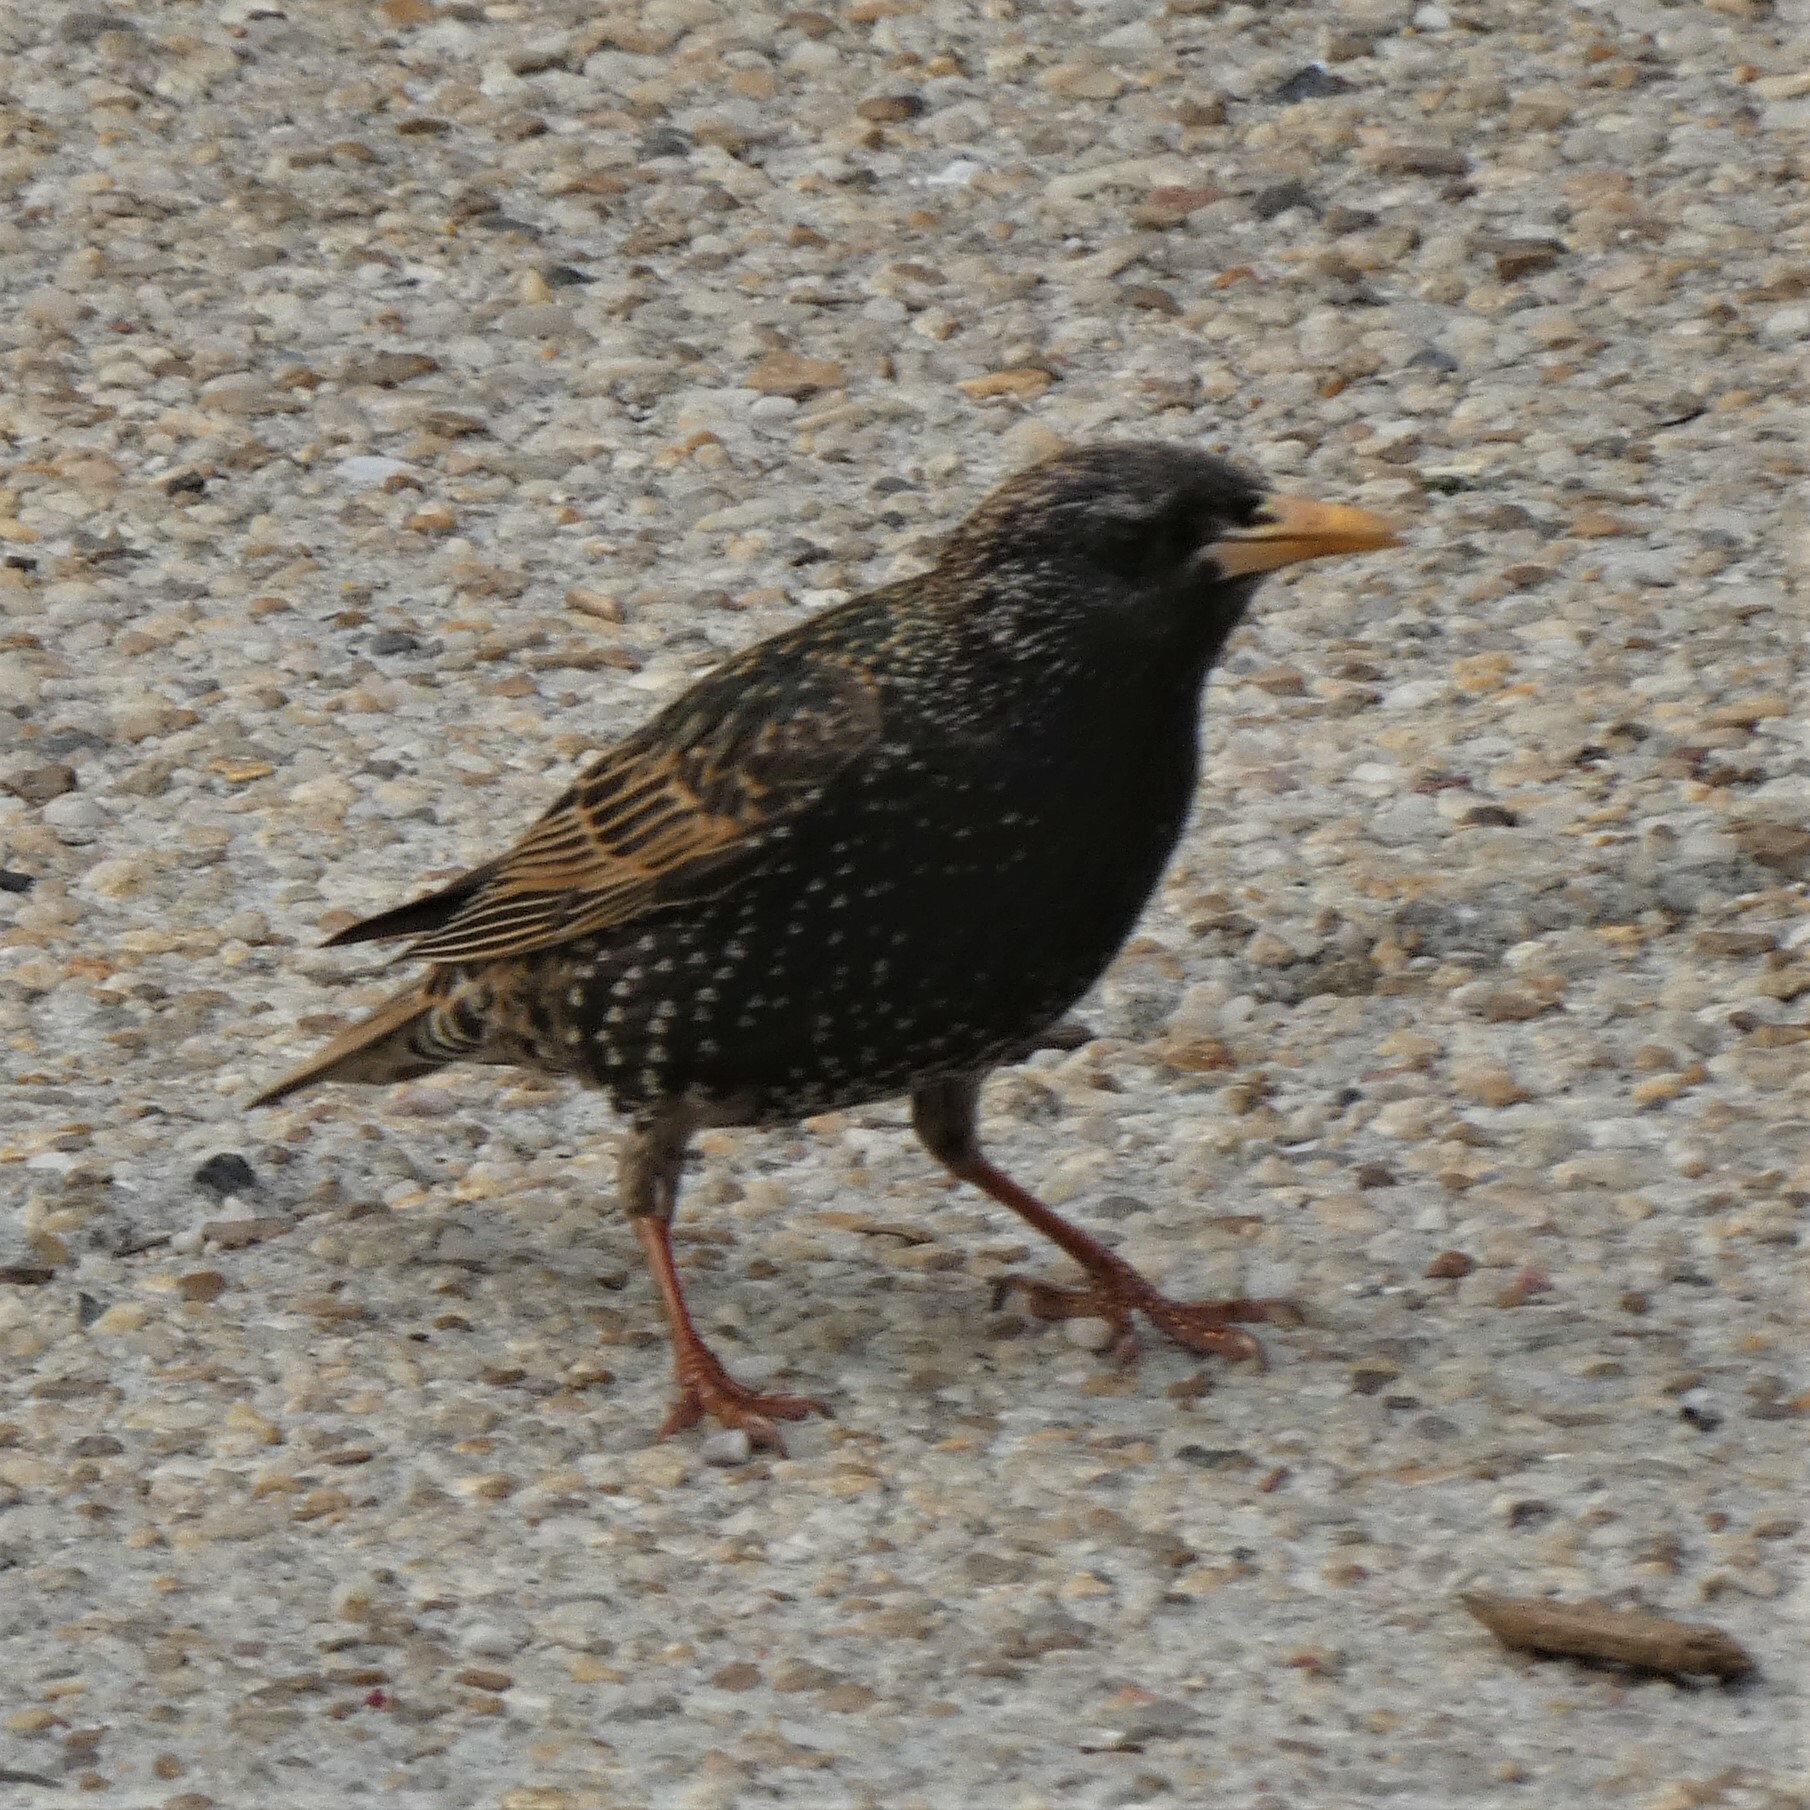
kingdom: Animalia
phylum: Chordata
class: Aves
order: Passeriformes
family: Sturnidae
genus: Sturnus
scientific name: Sturnus vulgaris
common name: Common starling
